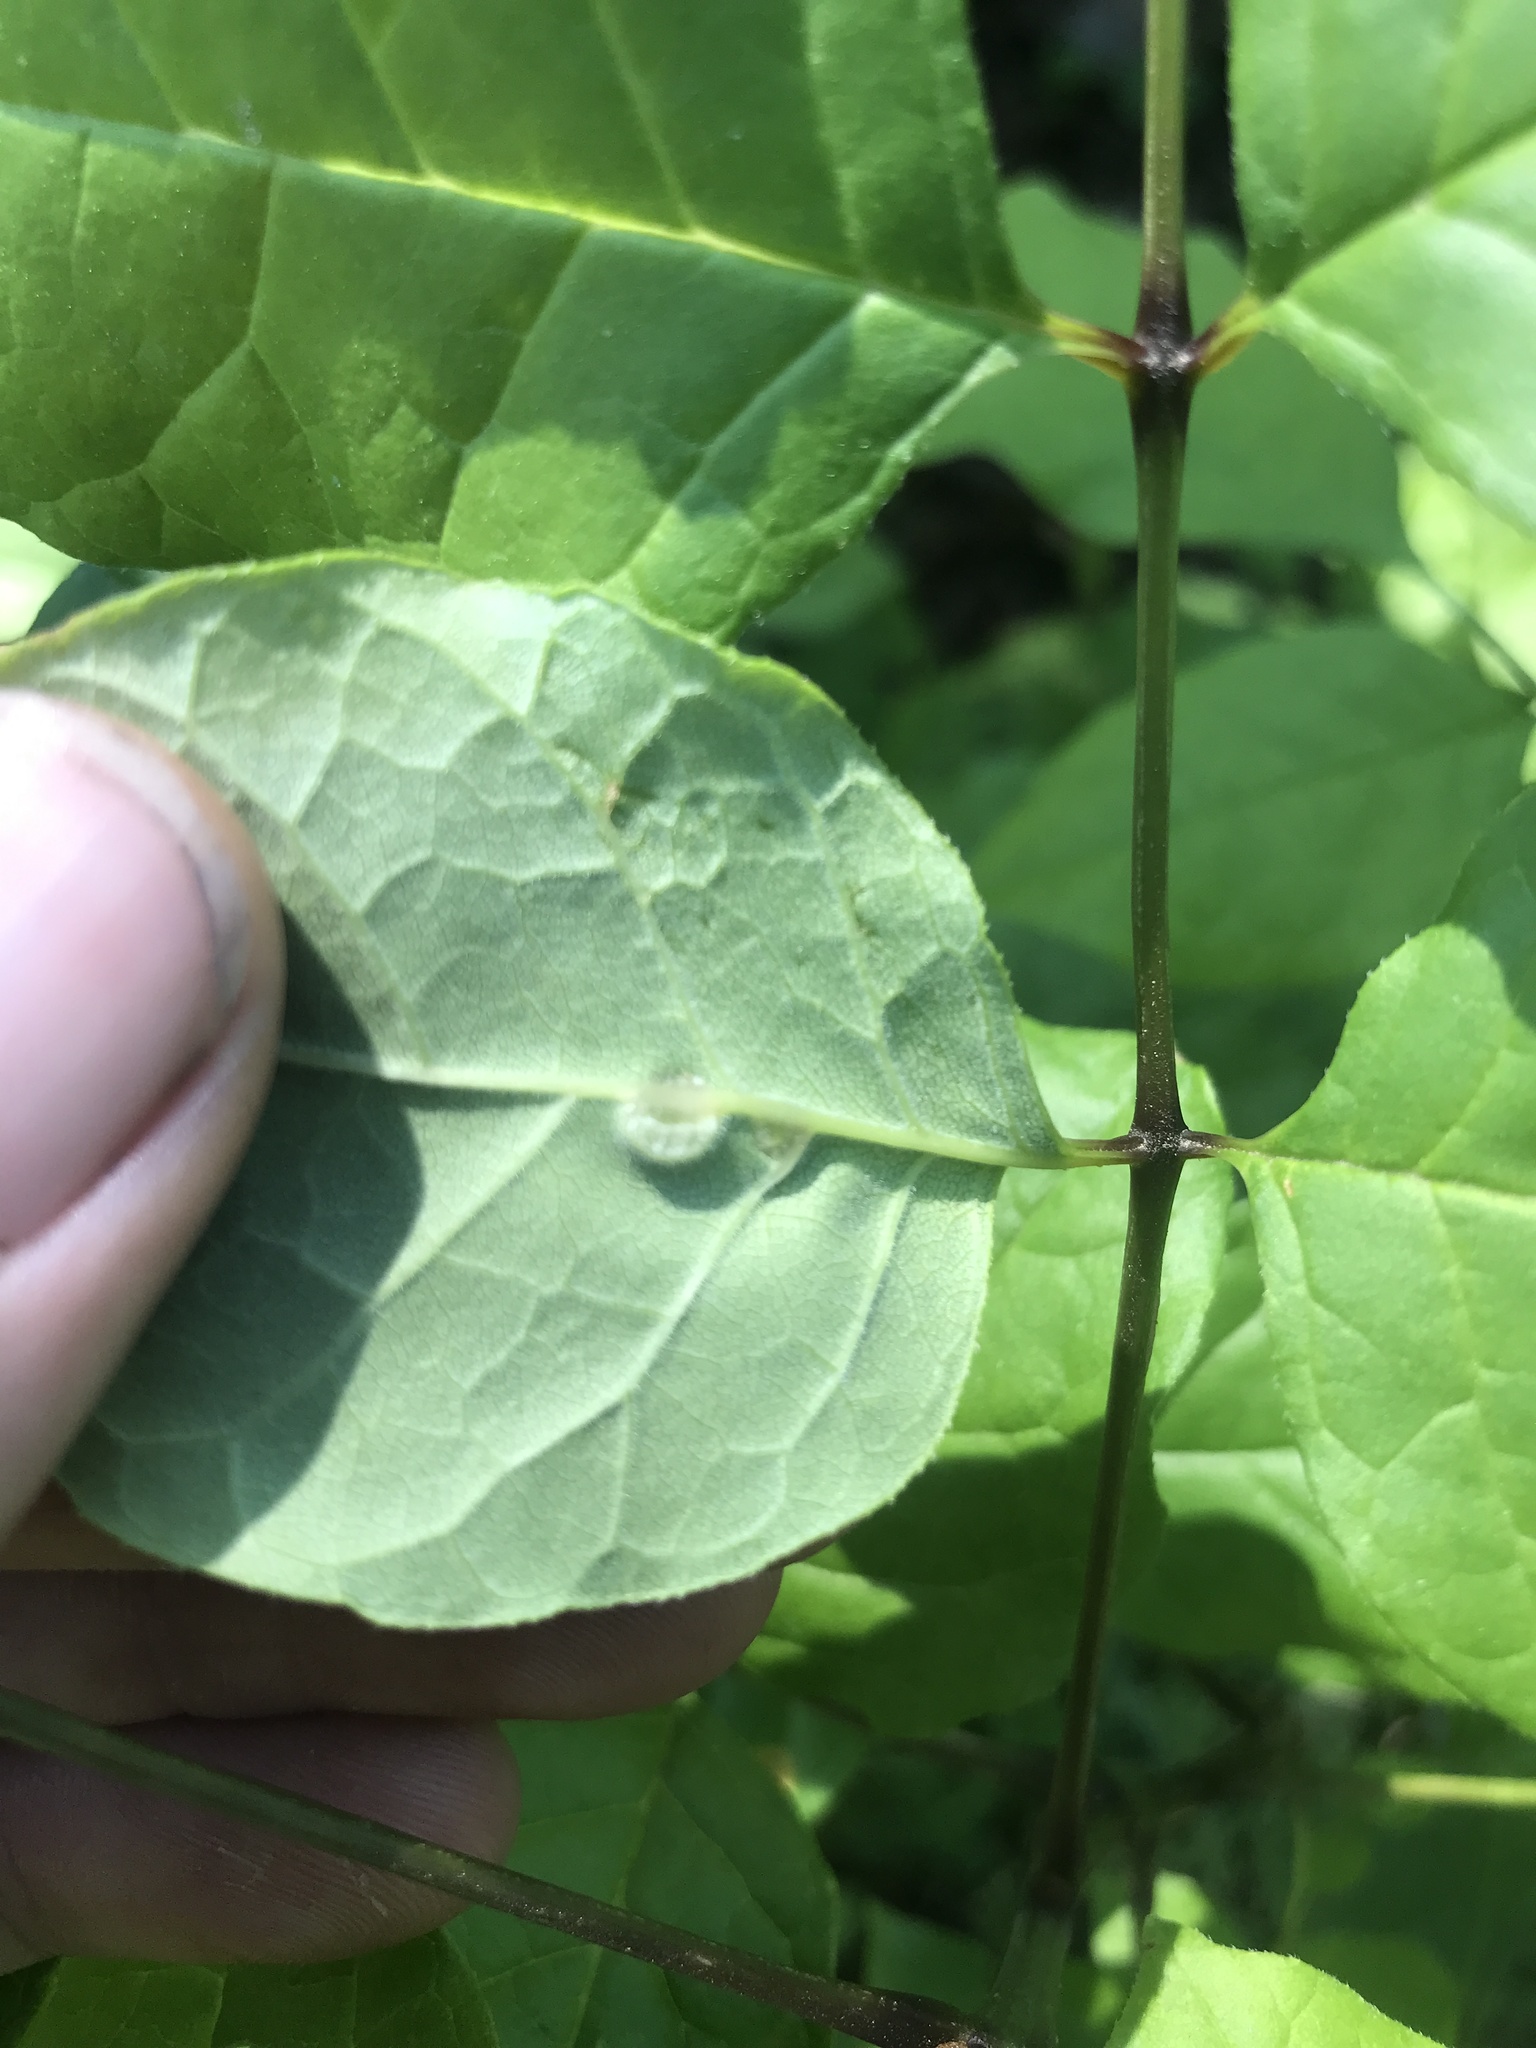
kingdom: Animalia
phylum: Arthropoda
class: Insecta
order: Diptera
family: Cecidomyiidae
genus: Dasineura
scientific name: Dasineura pellex
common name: Ash bullet gall midge
